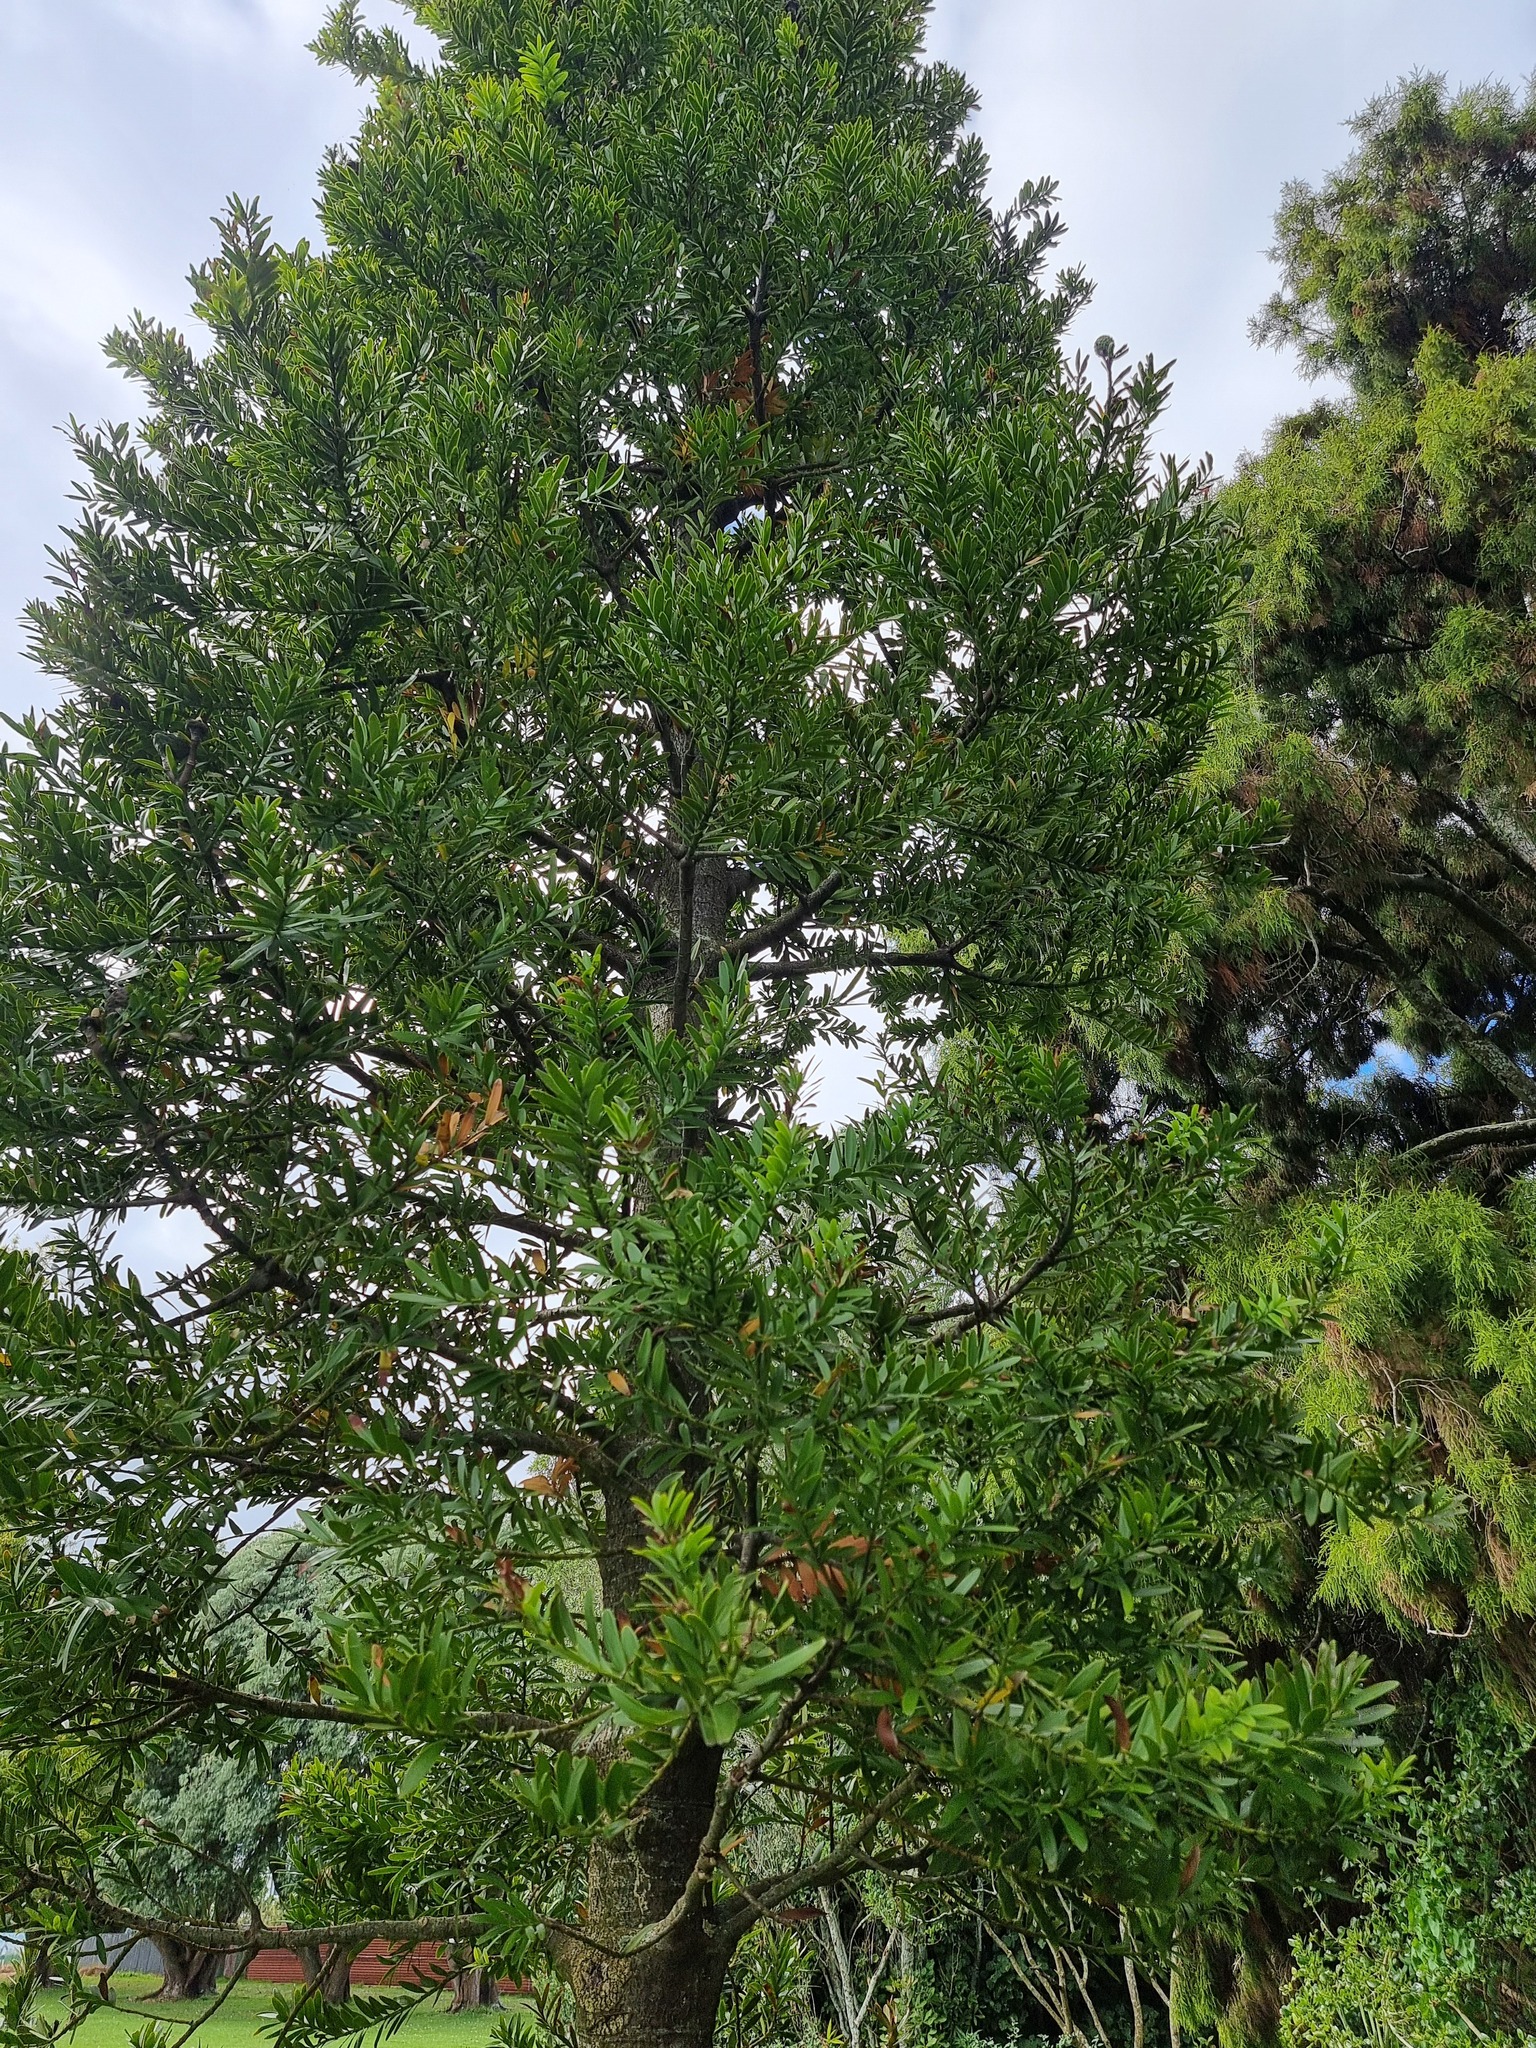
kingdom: Plantae
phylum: Tracheophyta
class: Pinopsida
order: Pinales
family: Araucariaceae
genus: Agathis
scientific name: Agathis australis
